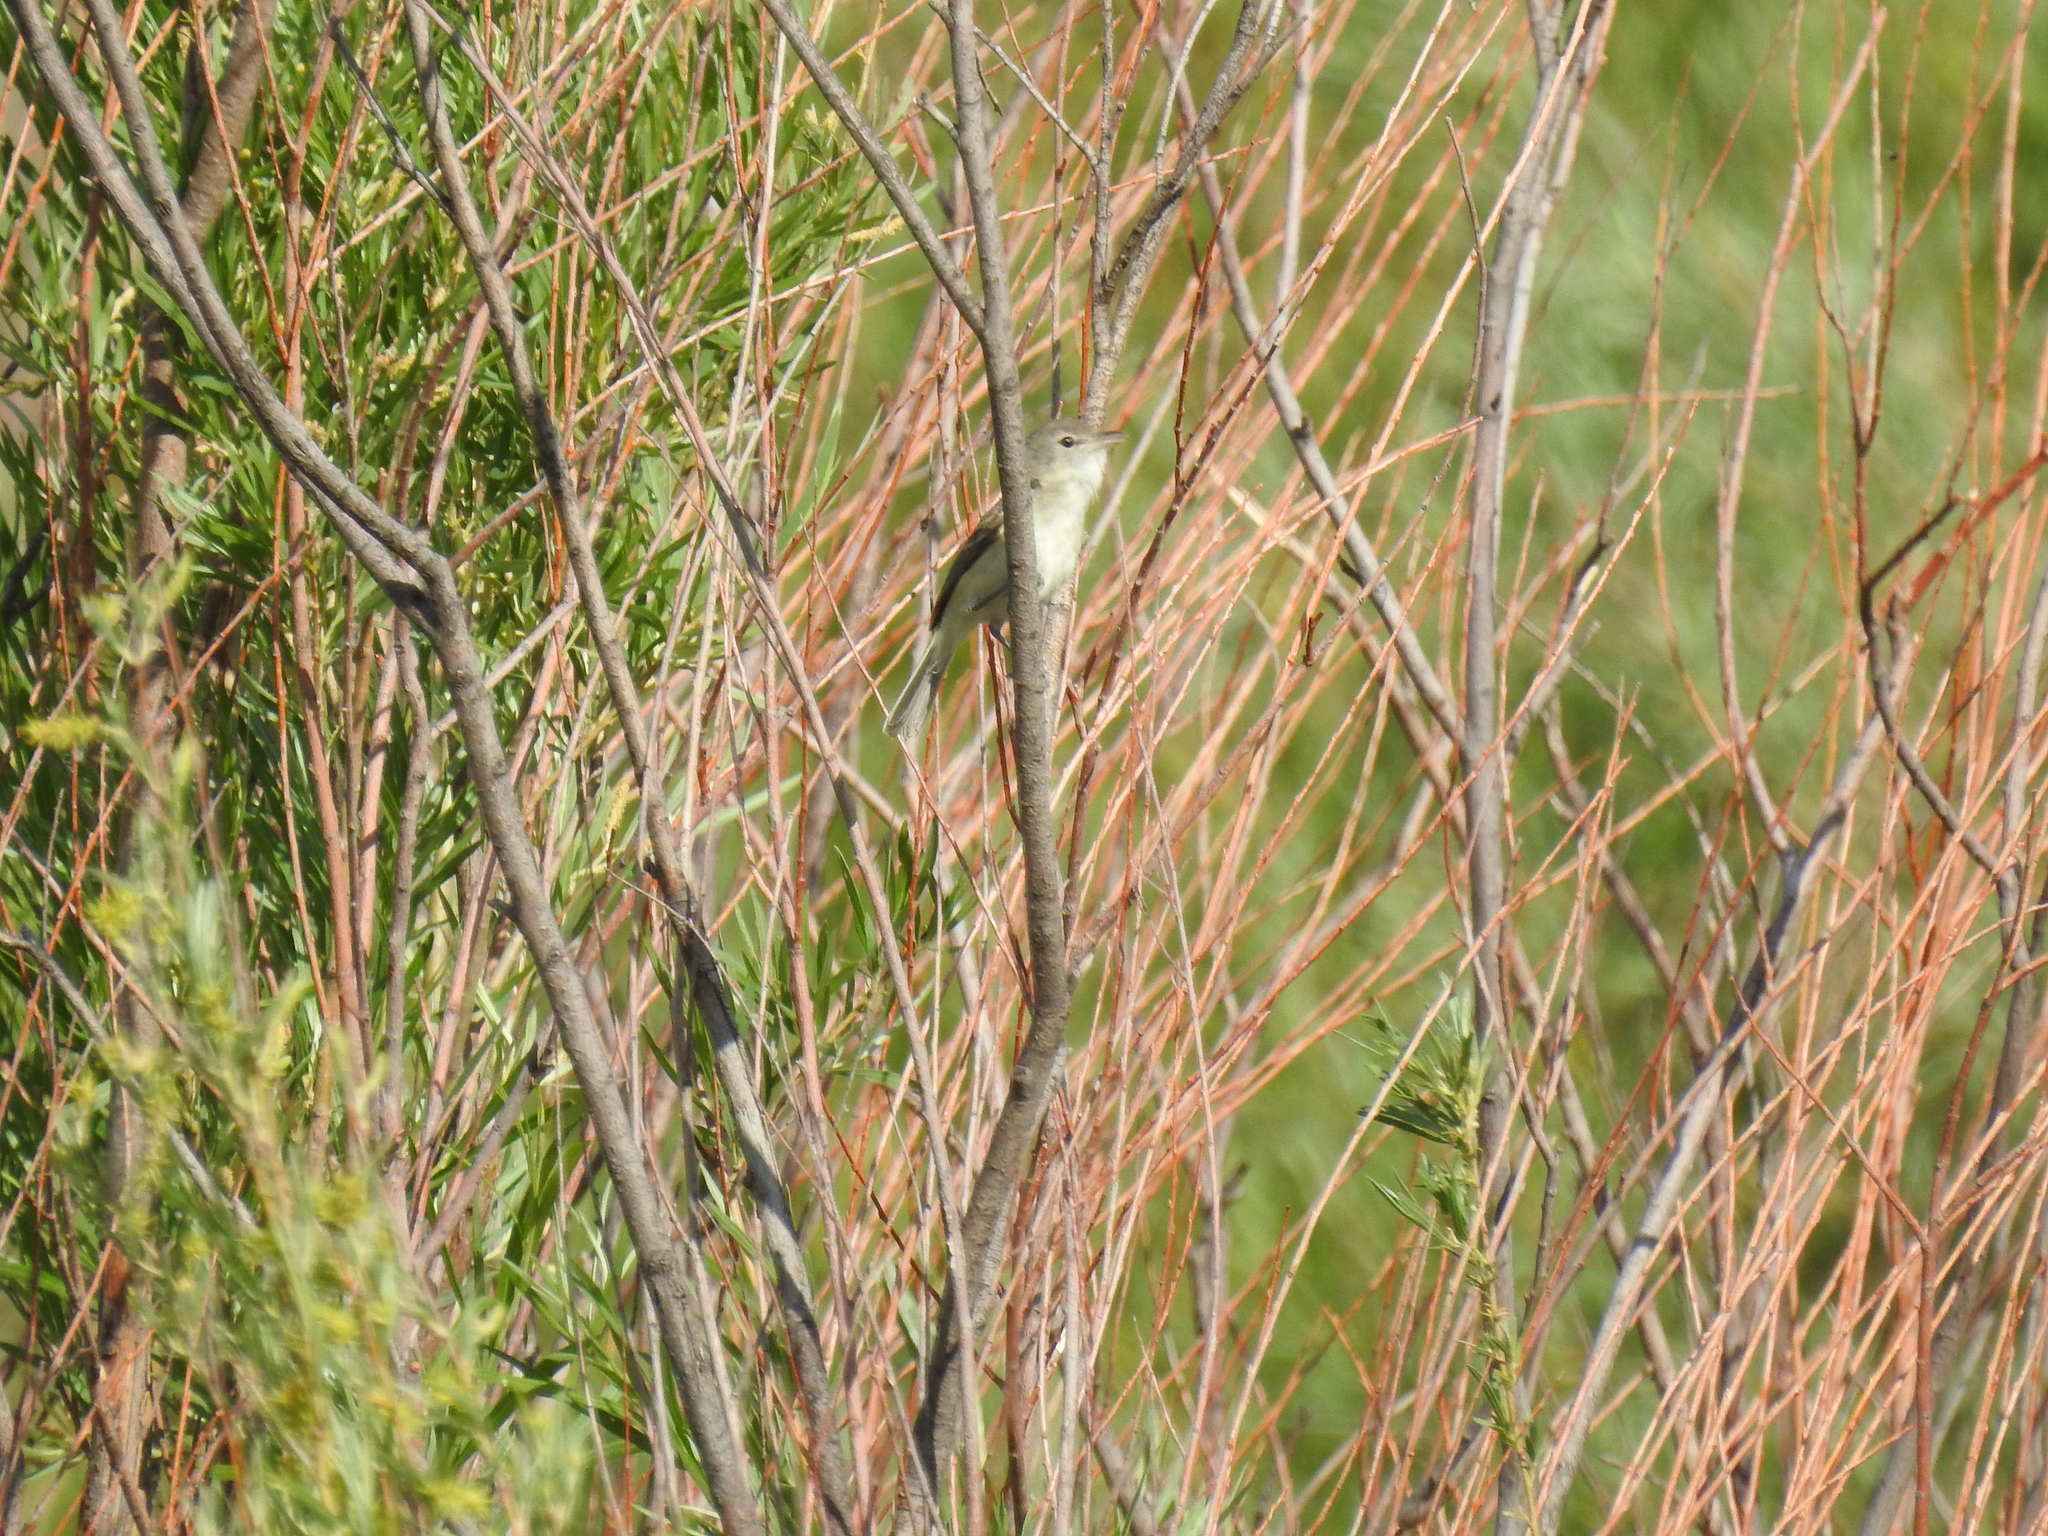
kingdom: Animalia
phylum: Chordata
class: Aves
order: Passeriformes
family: Vireonidae
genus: Vireo
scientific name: Vireo bellii
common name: Bell's vireo
